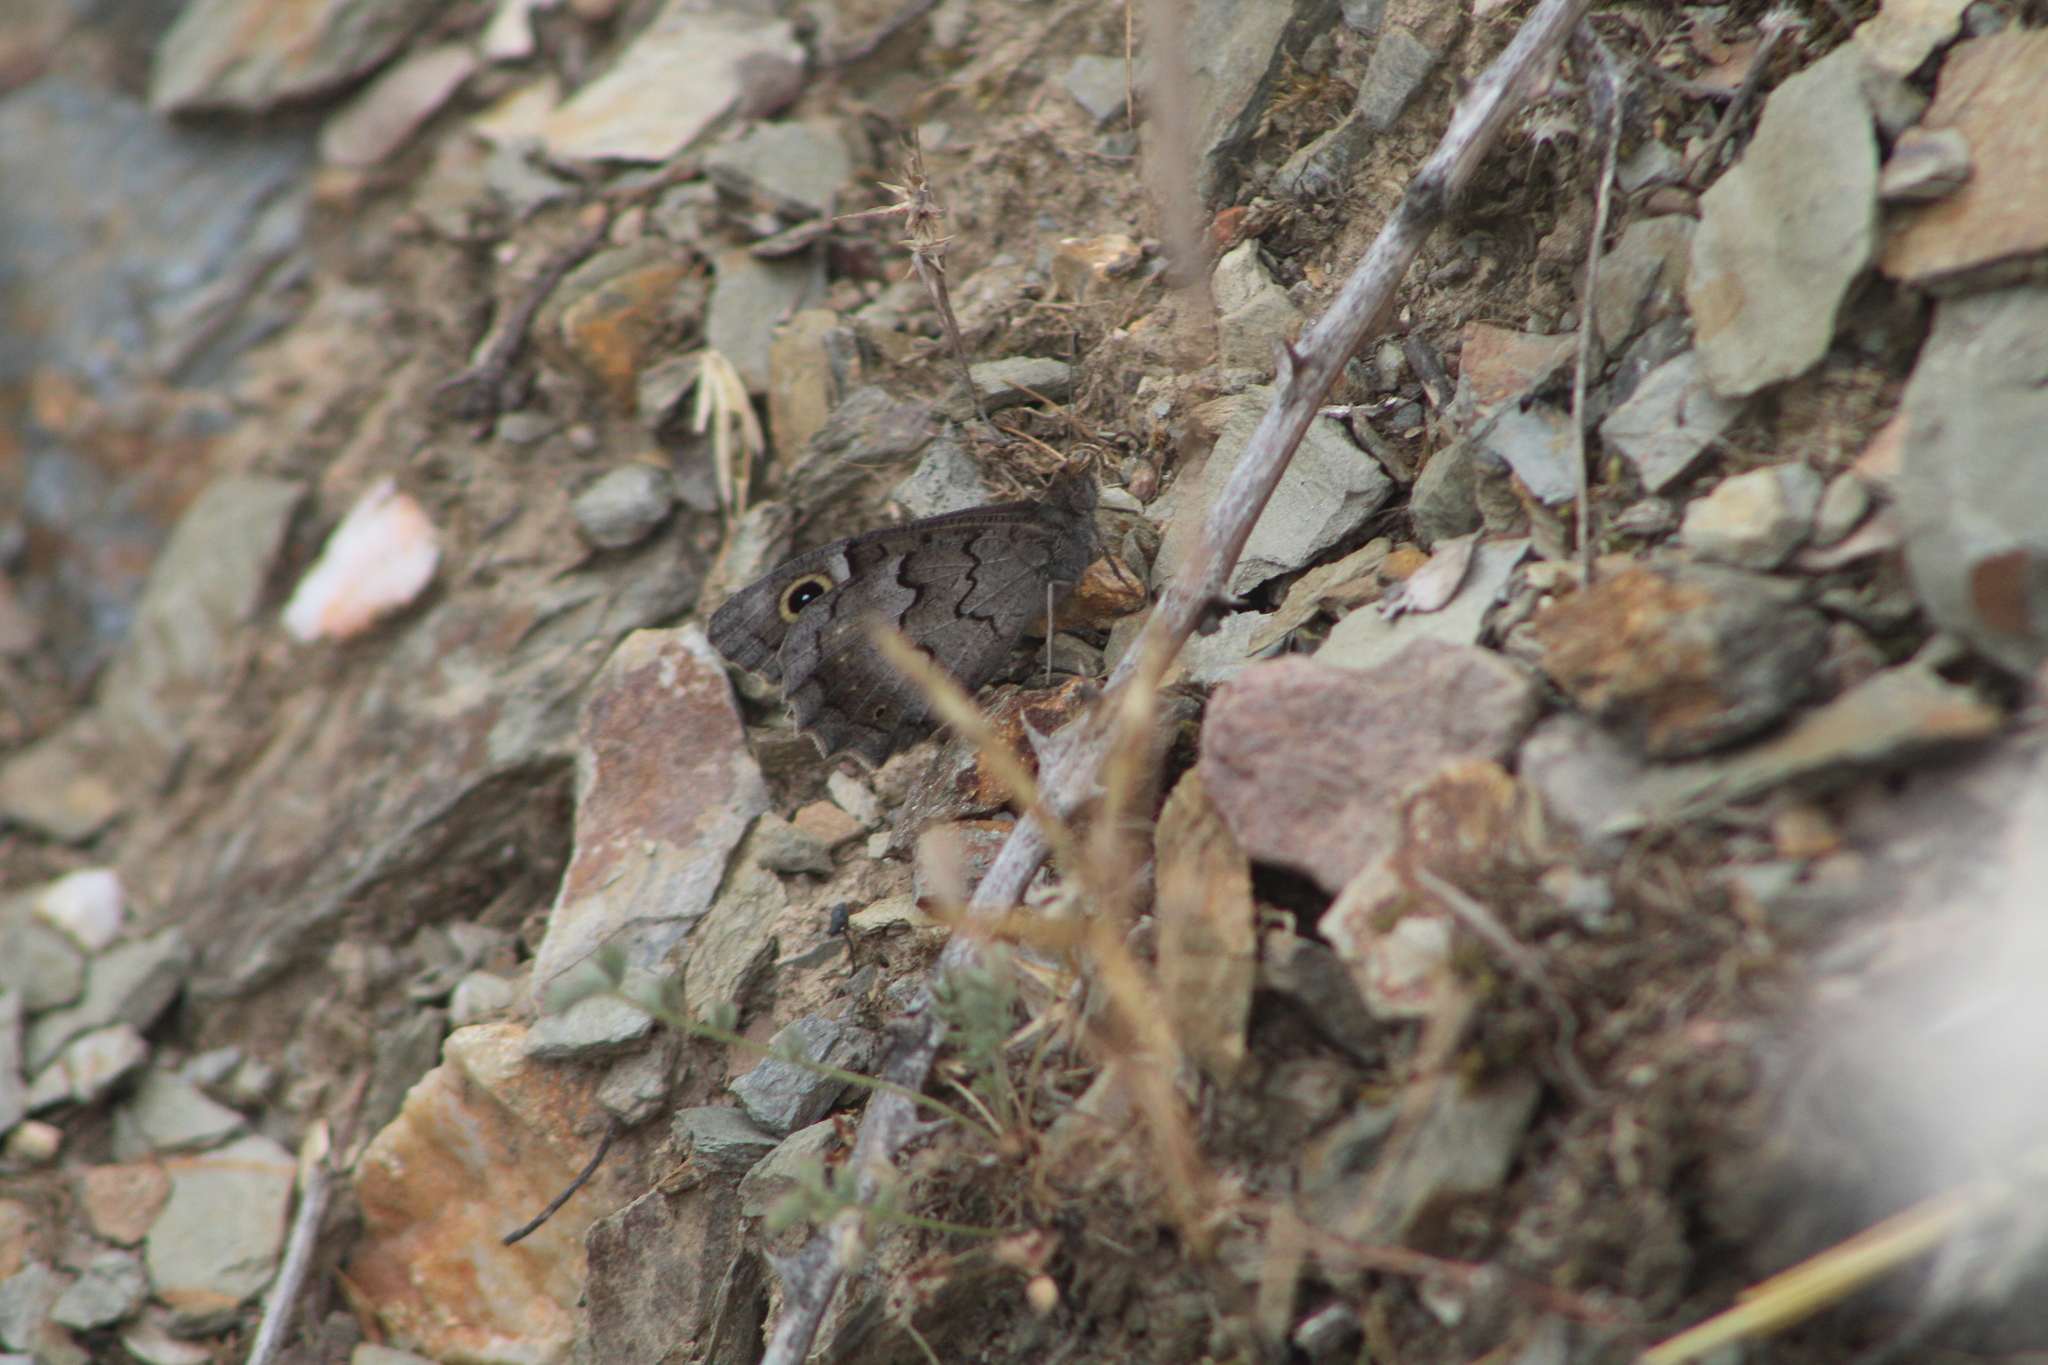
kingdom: Animalia
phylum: Arthropoda
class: Insecta
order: Lepidoptera
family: Nymphalidae
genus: Hipparchia
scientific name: Hipparchia statilinus
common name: Tree grayling
